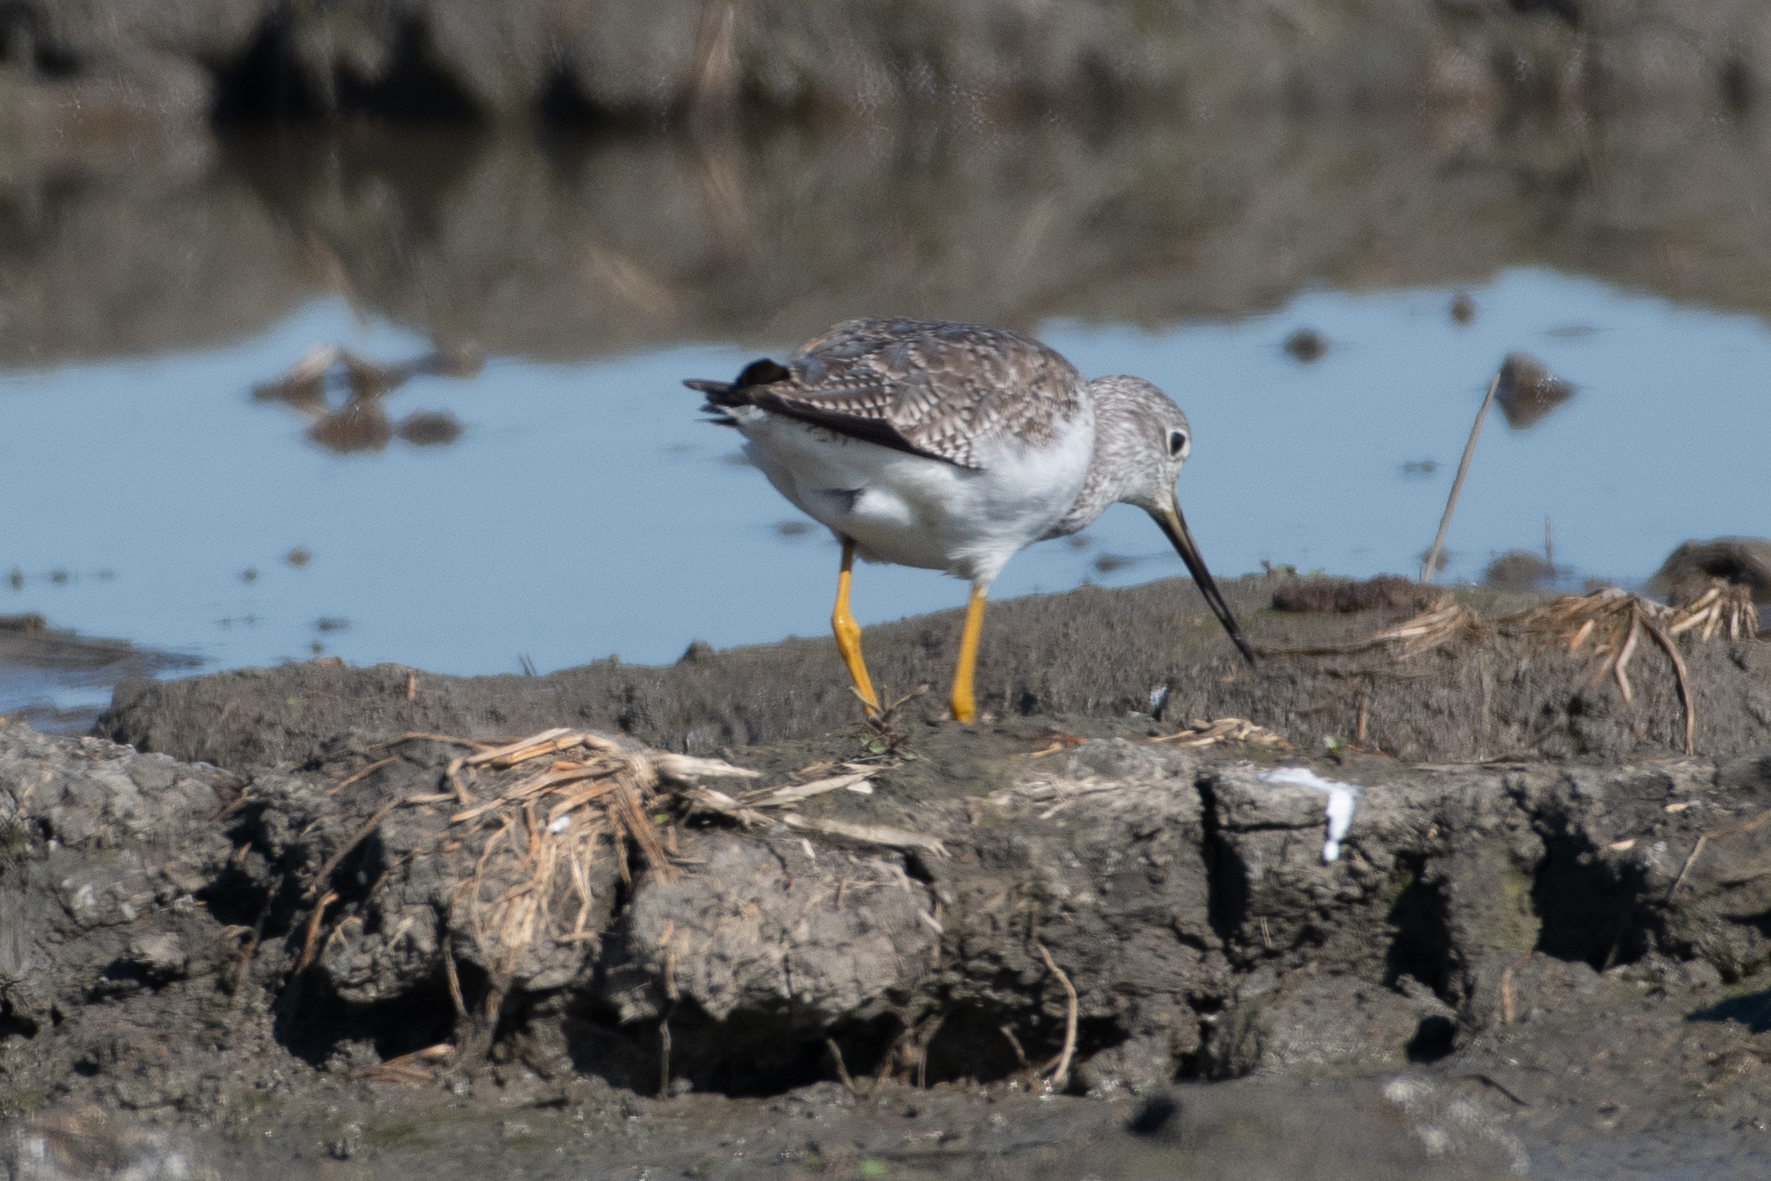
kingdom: Animalia
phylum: Chordata
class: Aves
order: Charadriiformes
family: Scolopacidae
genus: Tringa
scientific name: Tringa melanoleuca
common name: Greater yellowlegs
